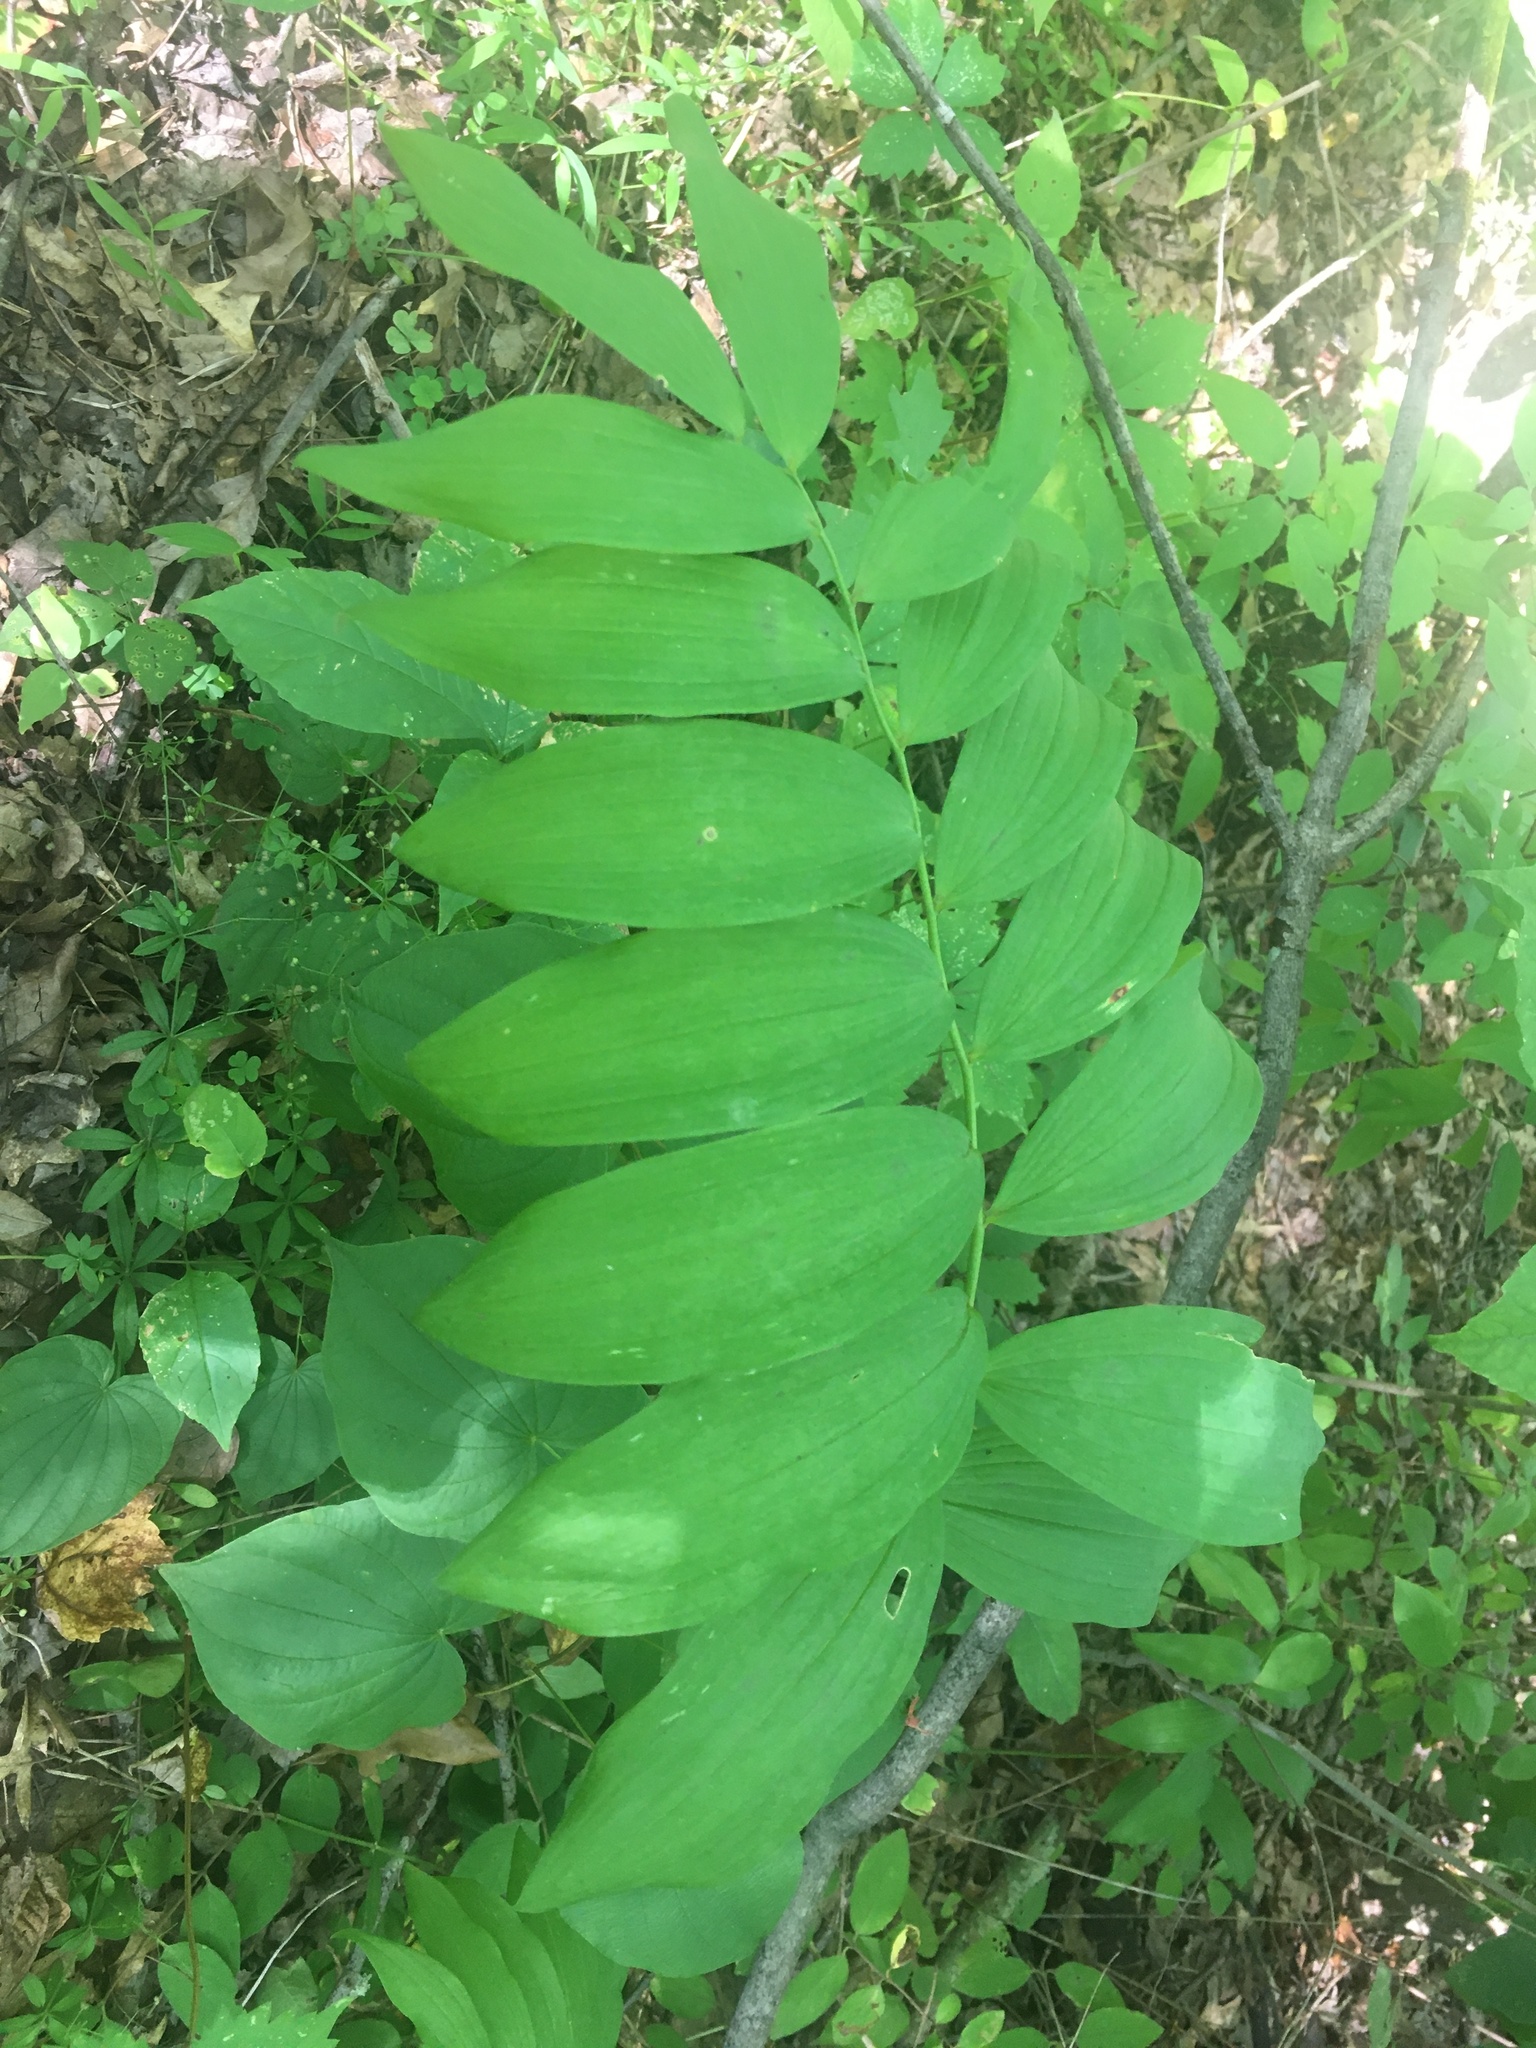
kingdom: Plantae
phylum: Tracheophyta
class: Liliopsida
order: Asparagales
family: Asparagaceae
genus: Polygonatum
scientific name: Polygonatum pubescens
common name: Downy solomon's seal
